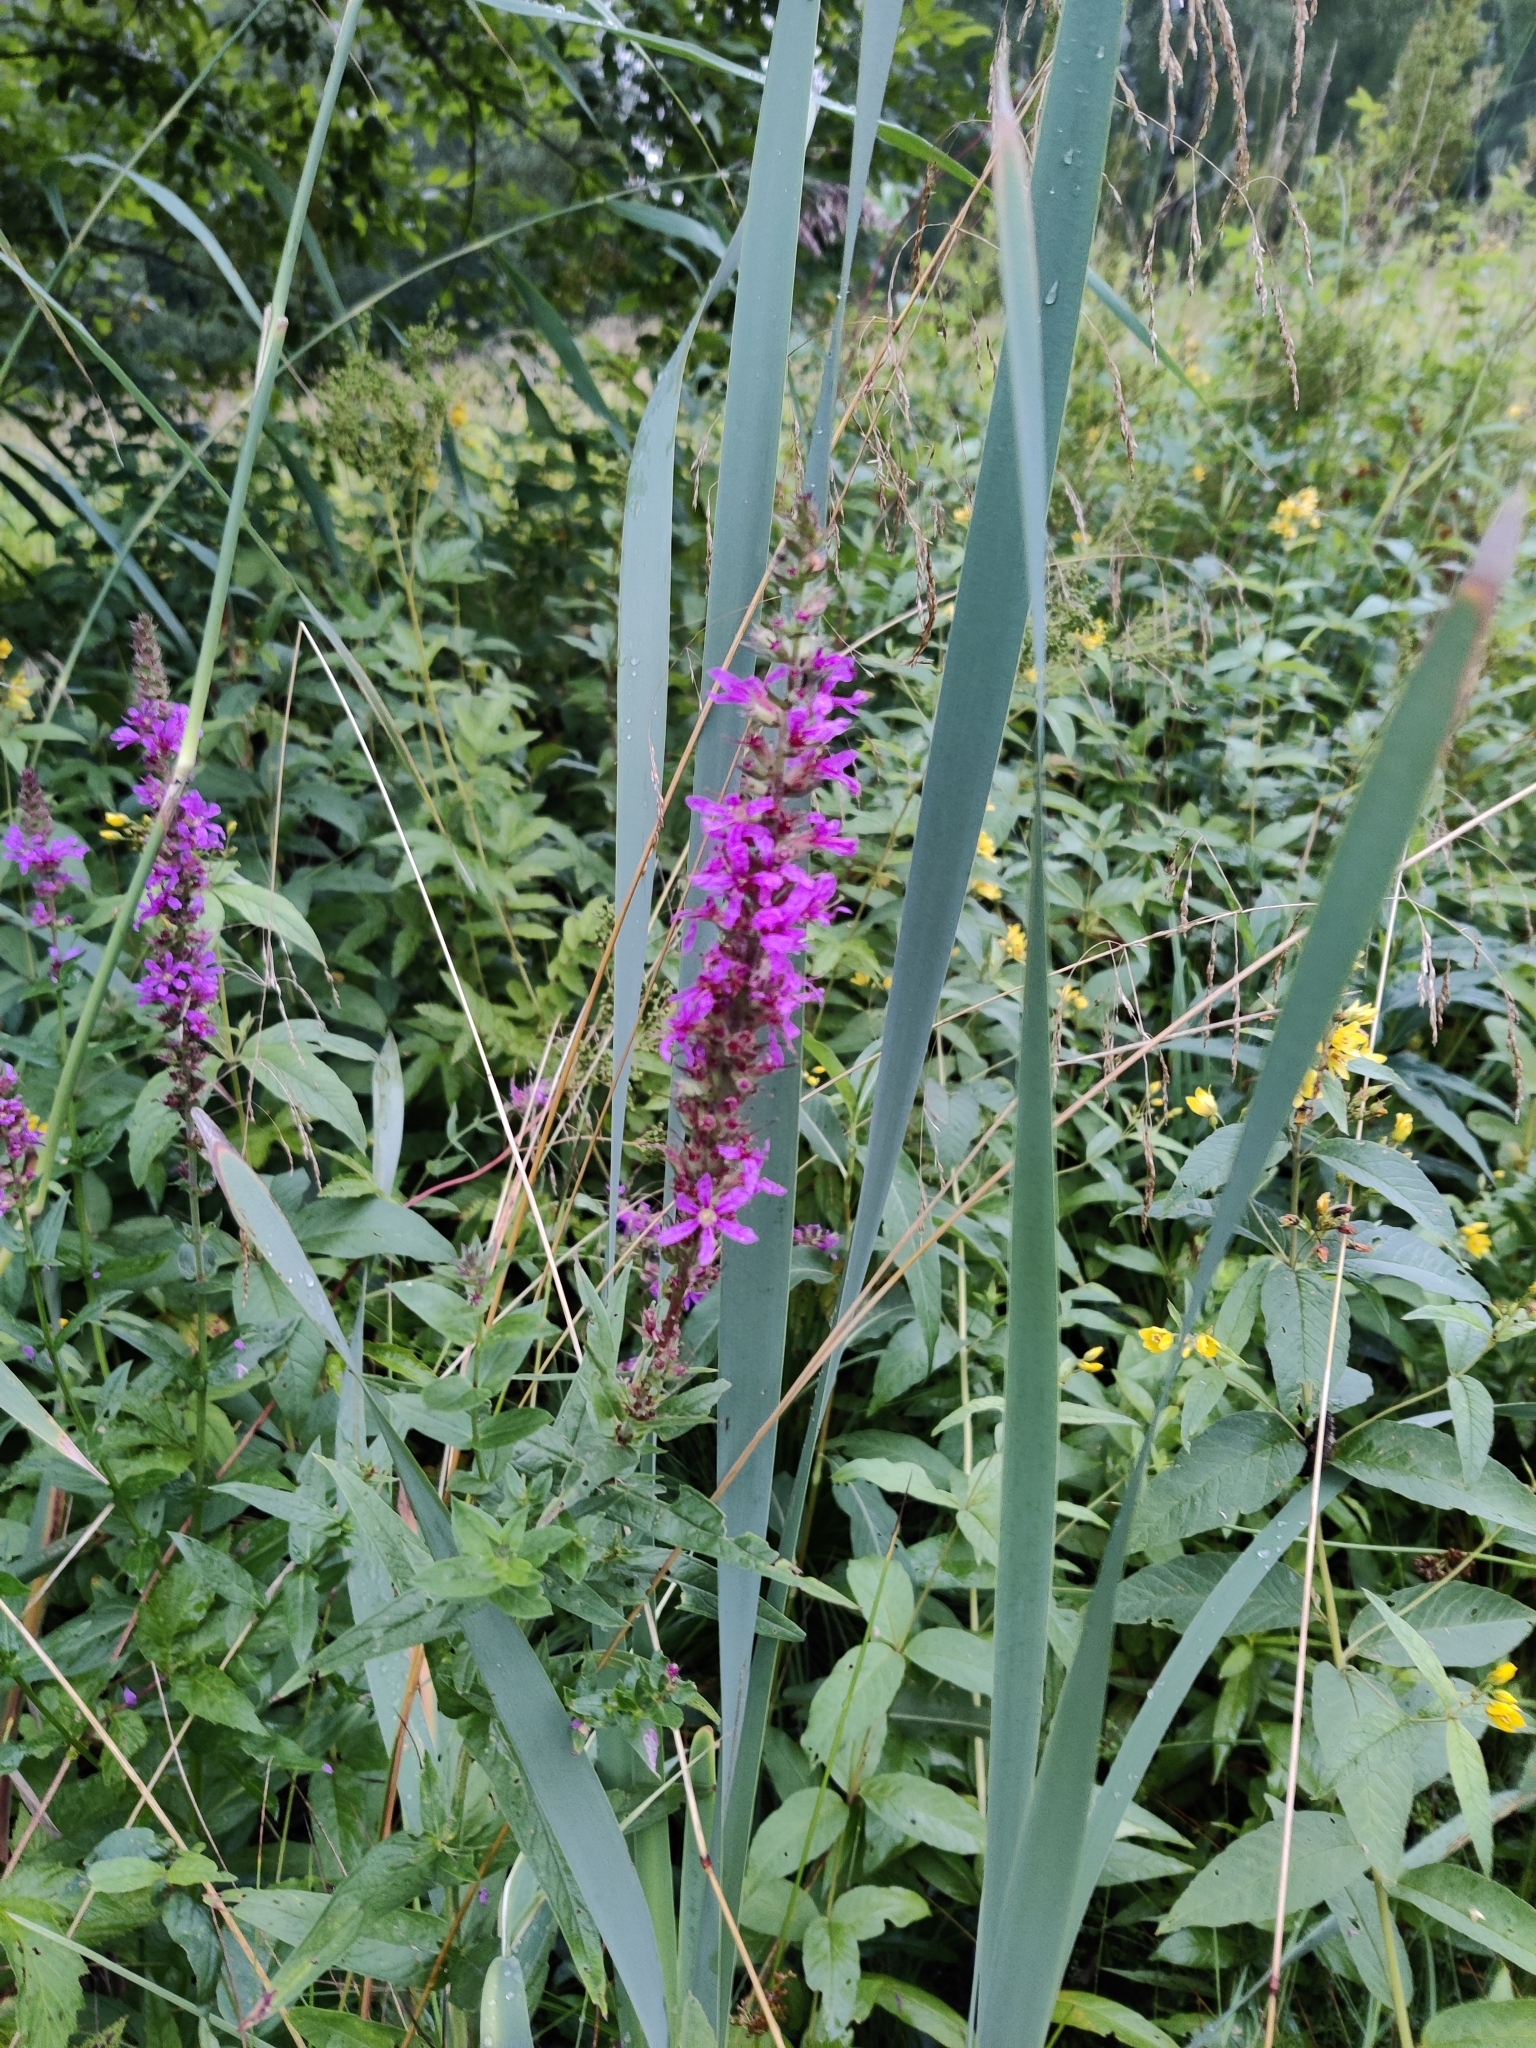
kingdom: Plantae
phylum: Tracheophyta
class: Magnoliopsida
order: Myrtales
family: Lythraceae
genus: Lythrum
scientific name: Lythrum salicaria
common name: Purple loosestrife
